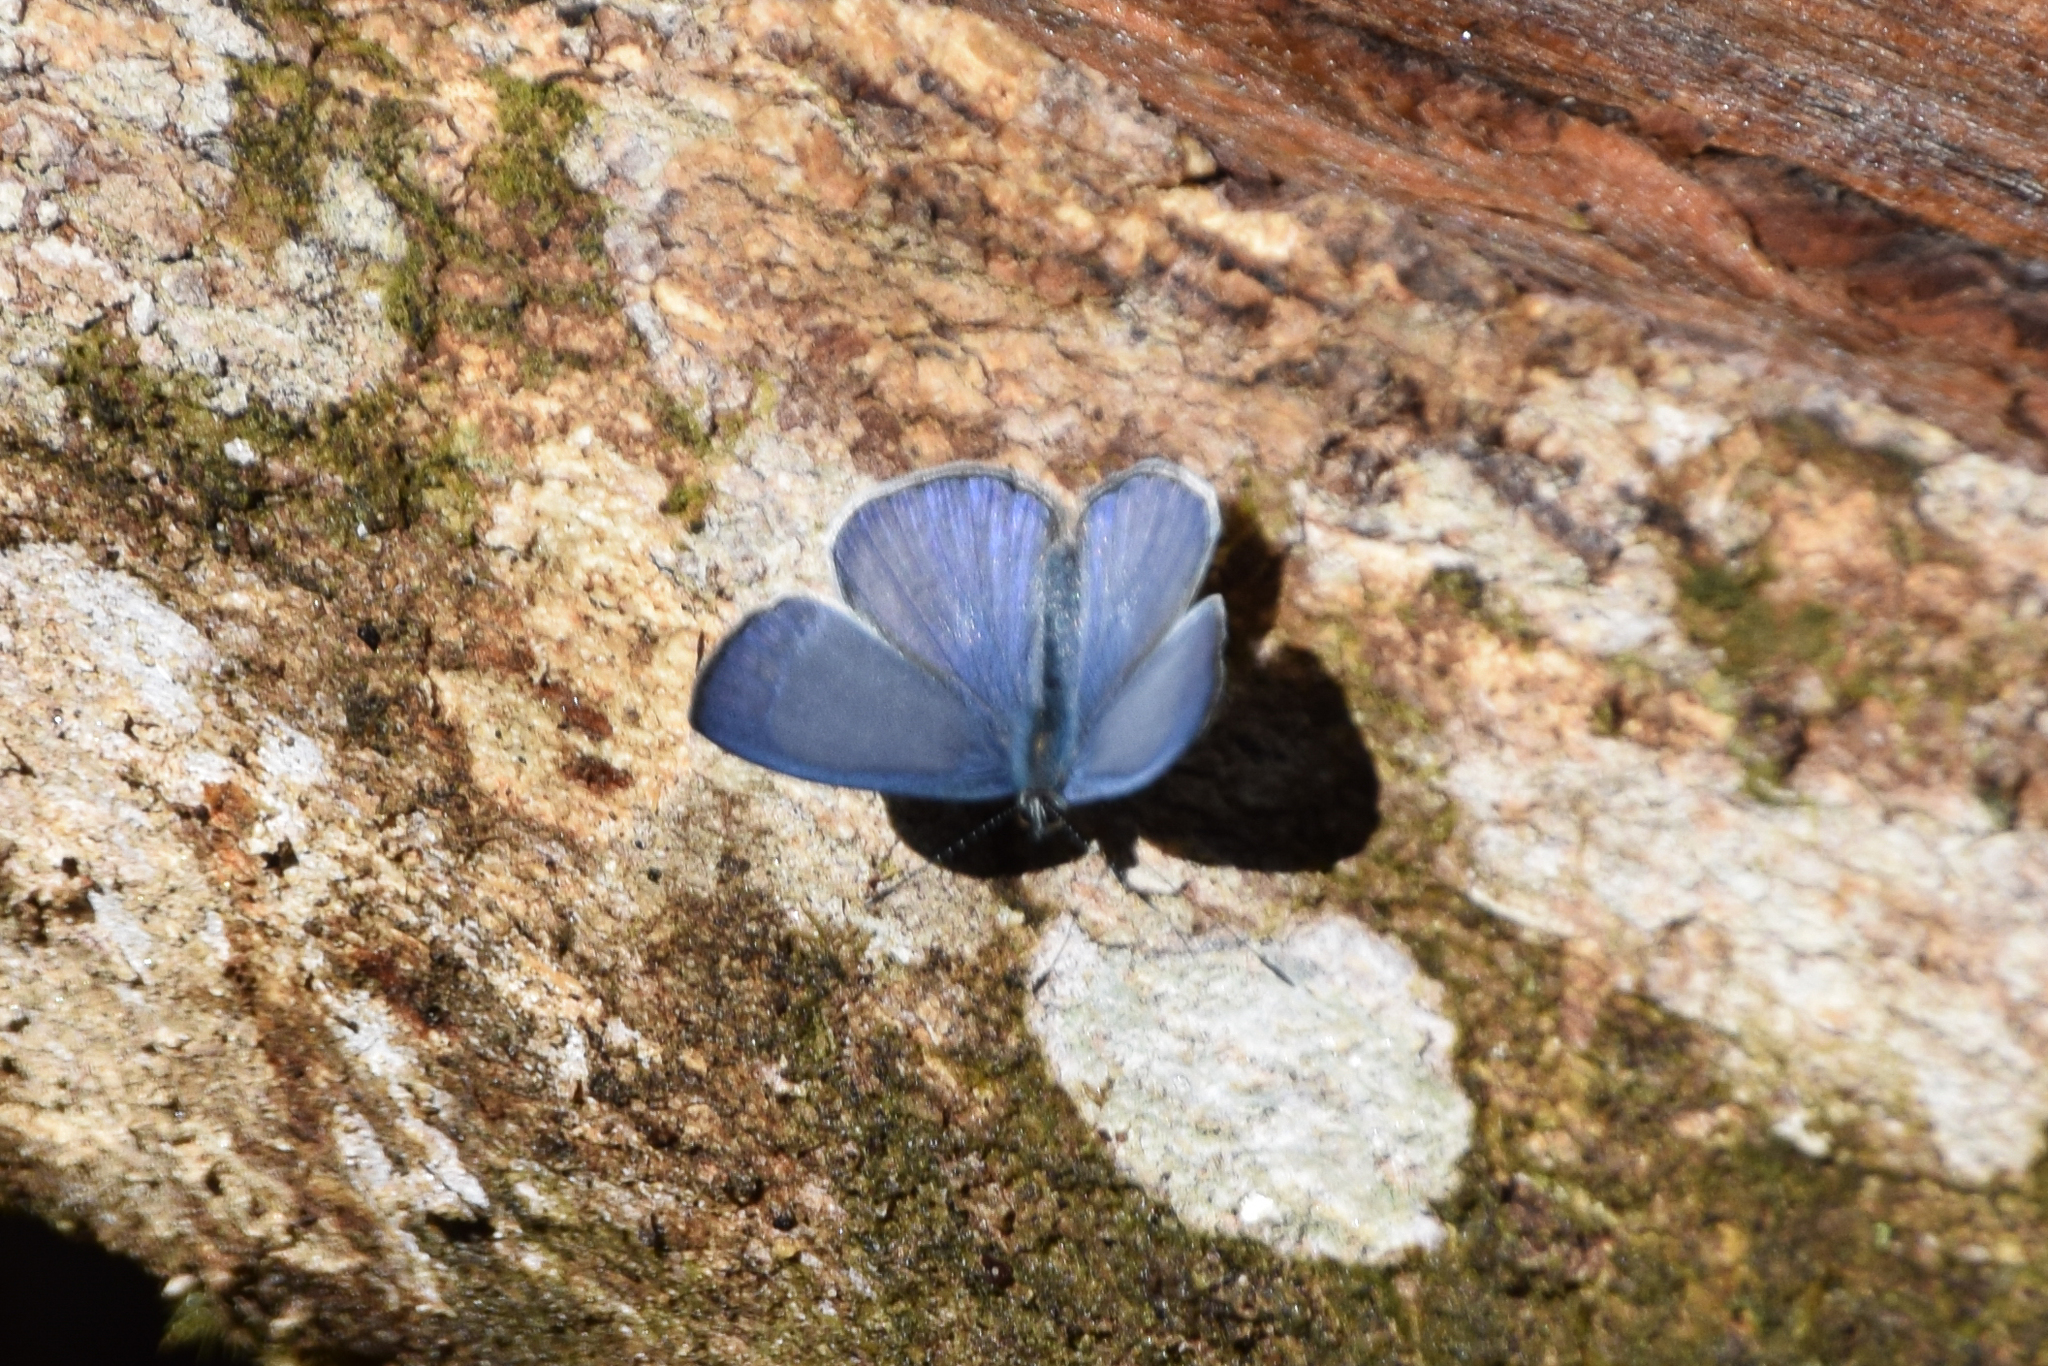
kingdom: Animalia
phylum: Arthropoda
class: Insecta
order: Lepidoptera
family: Lycaenidae
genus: Lycaenopsis
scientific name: Lycaenopsis tsukadai
